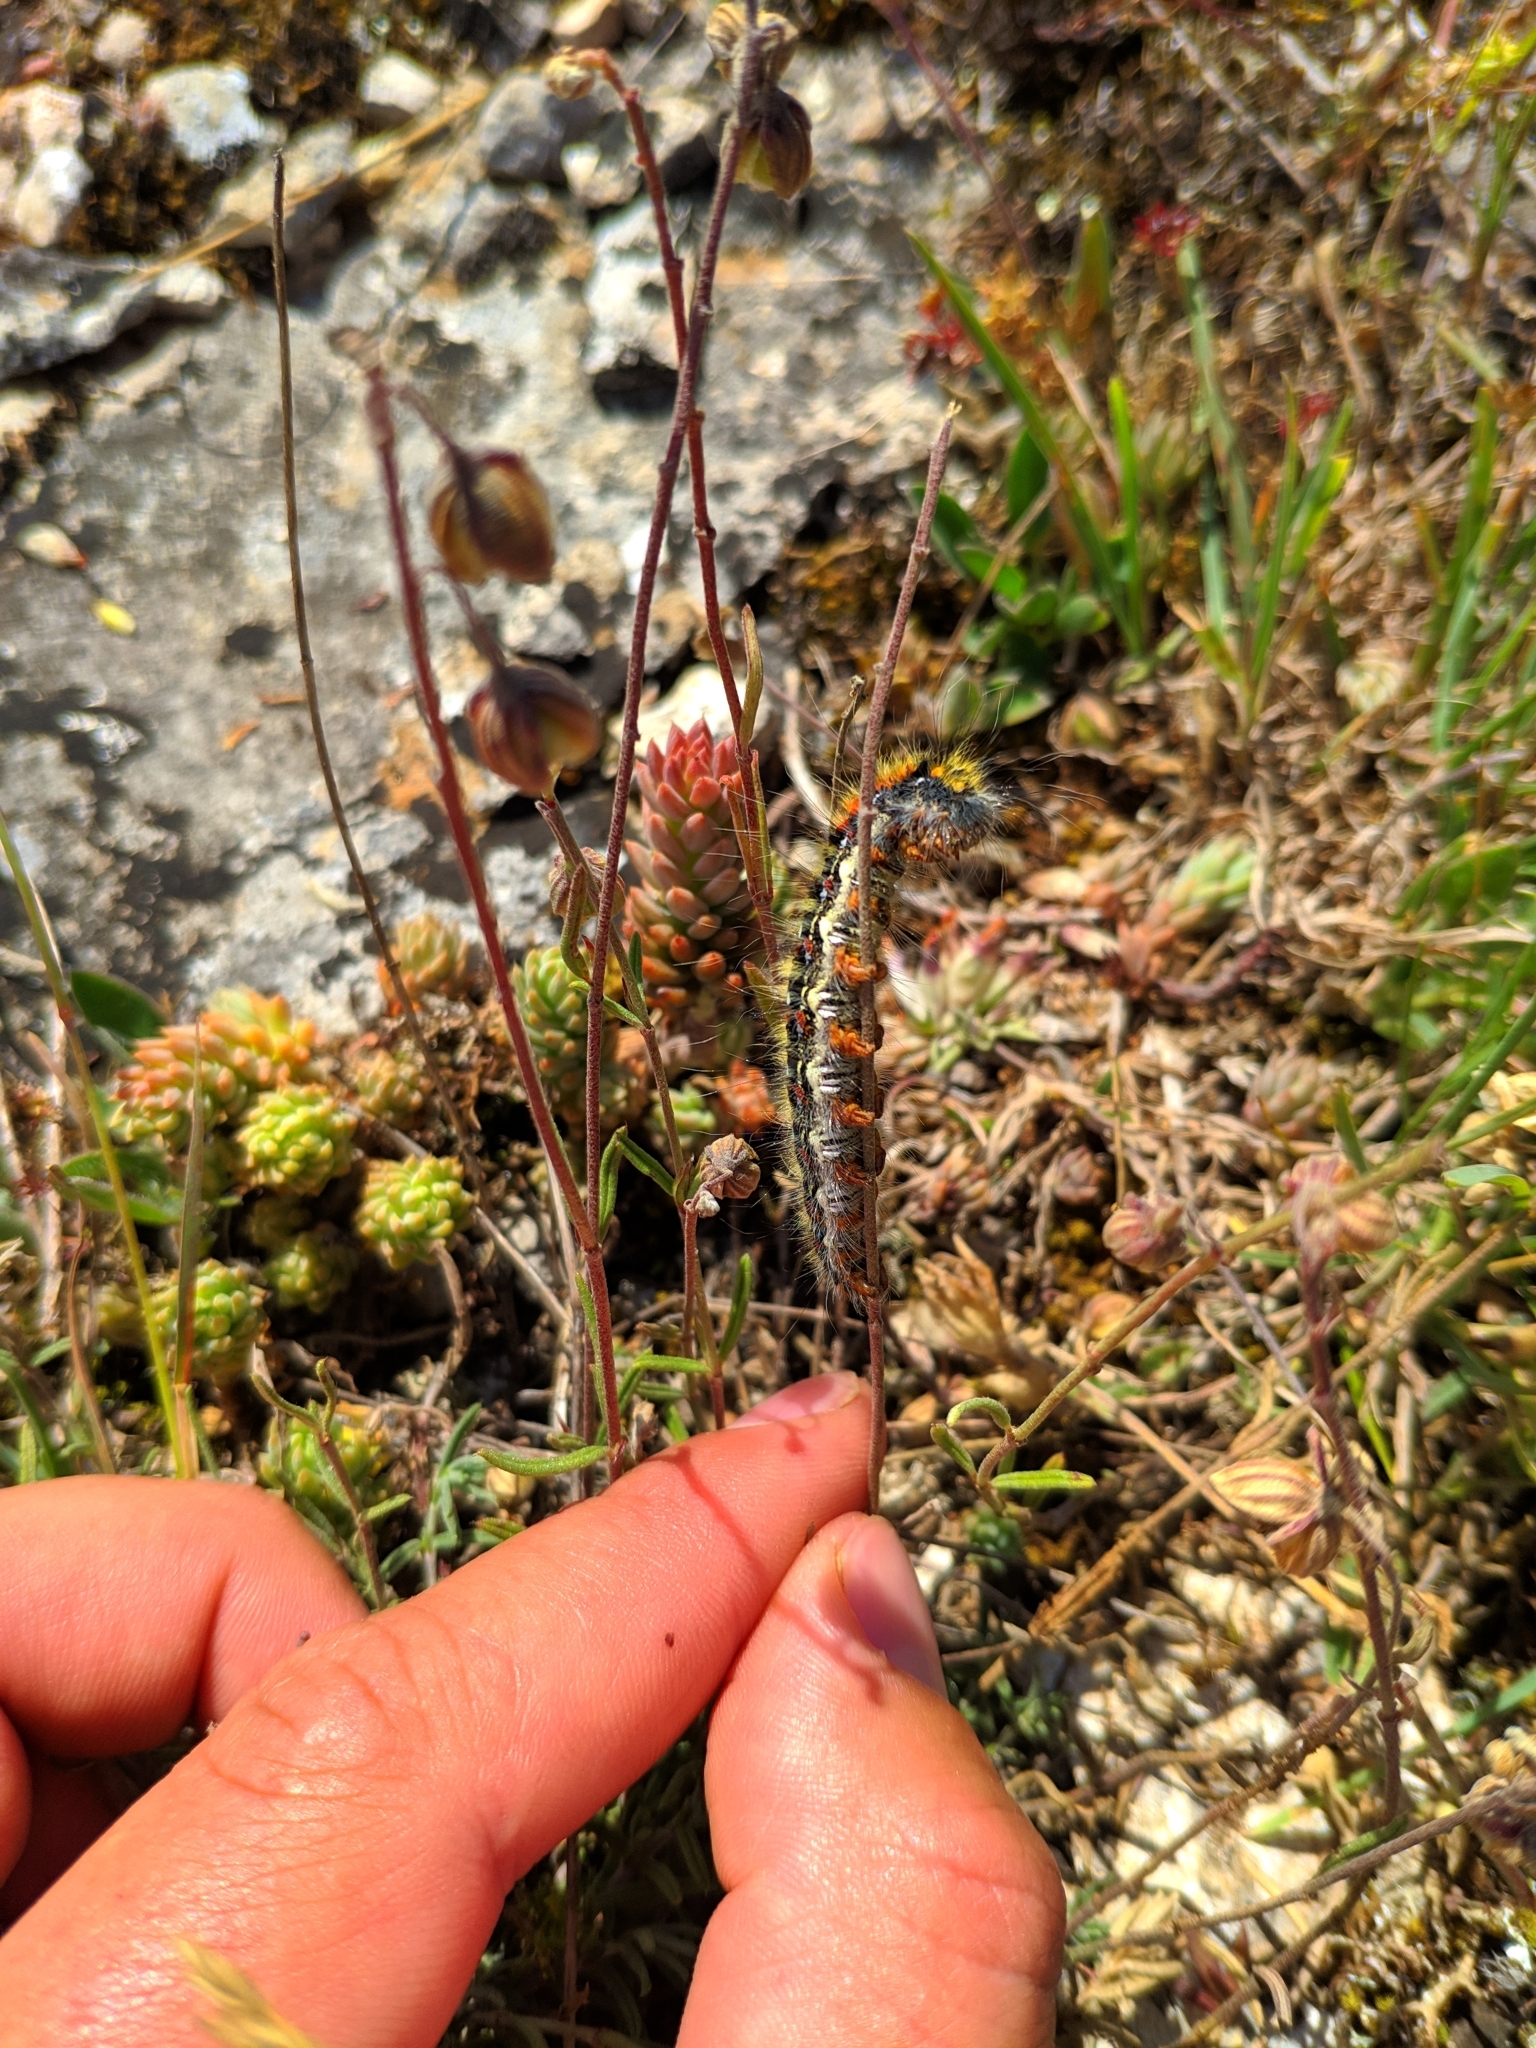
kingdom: Animalia
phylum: Arthropoda
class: Insecta
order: Lepidoptera
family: Lasiocampidae
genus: Psilogaster
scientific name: Psilogaster loti
